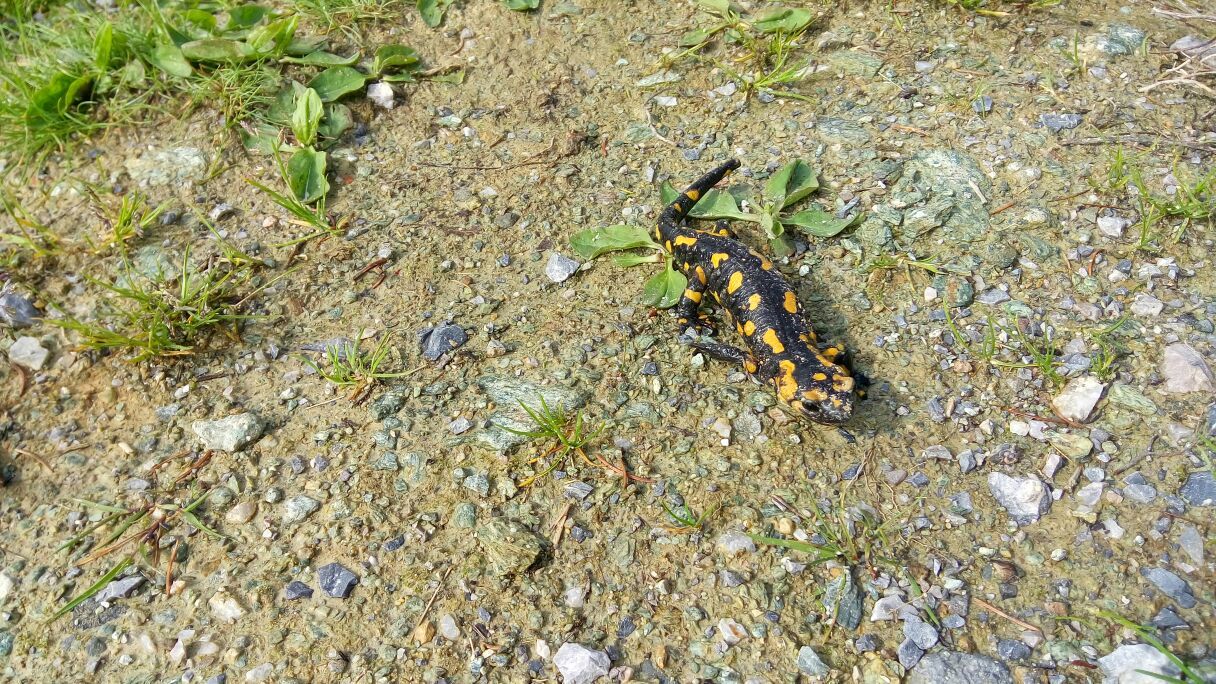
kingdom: Animalia
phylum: Chordata
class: Amphibia
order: Caudata
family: Salamandridae
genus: Salamandra
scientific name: Salamandra salamandra
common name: Fire salamander
